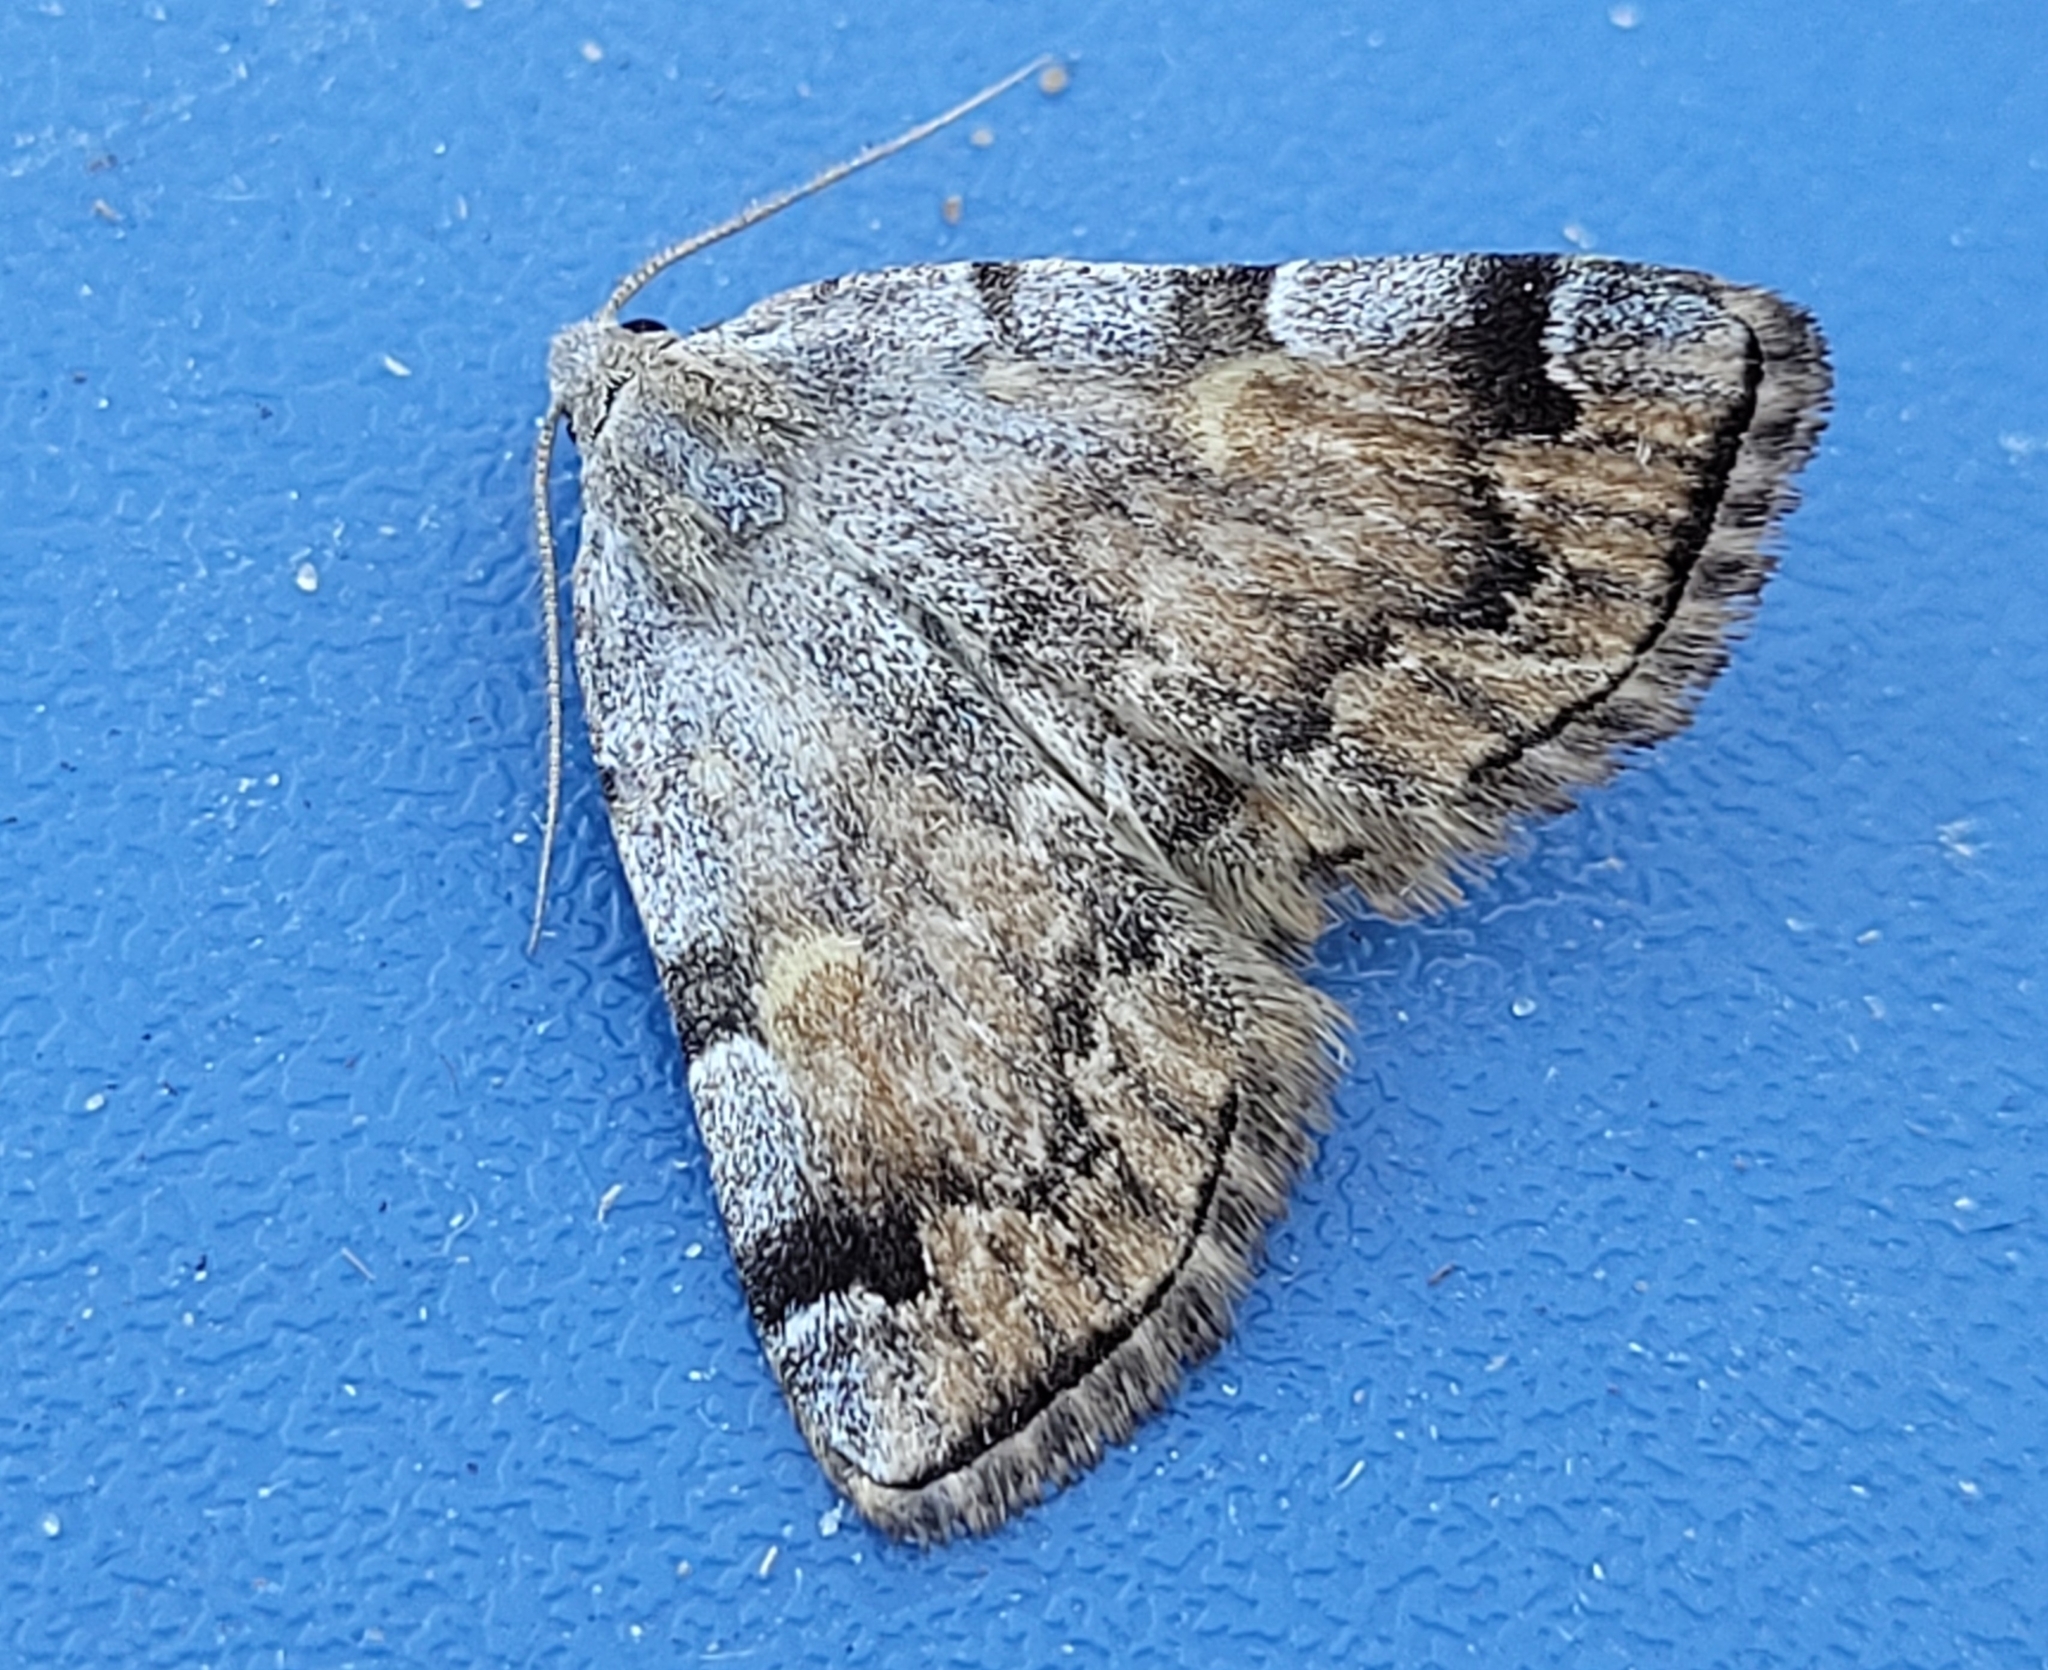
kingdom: Animalia
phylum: Arthropoda
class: Insecta
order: Lepidoptera
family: Erebidae
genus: Idia
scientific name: Idia americalis
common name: American idia moth
